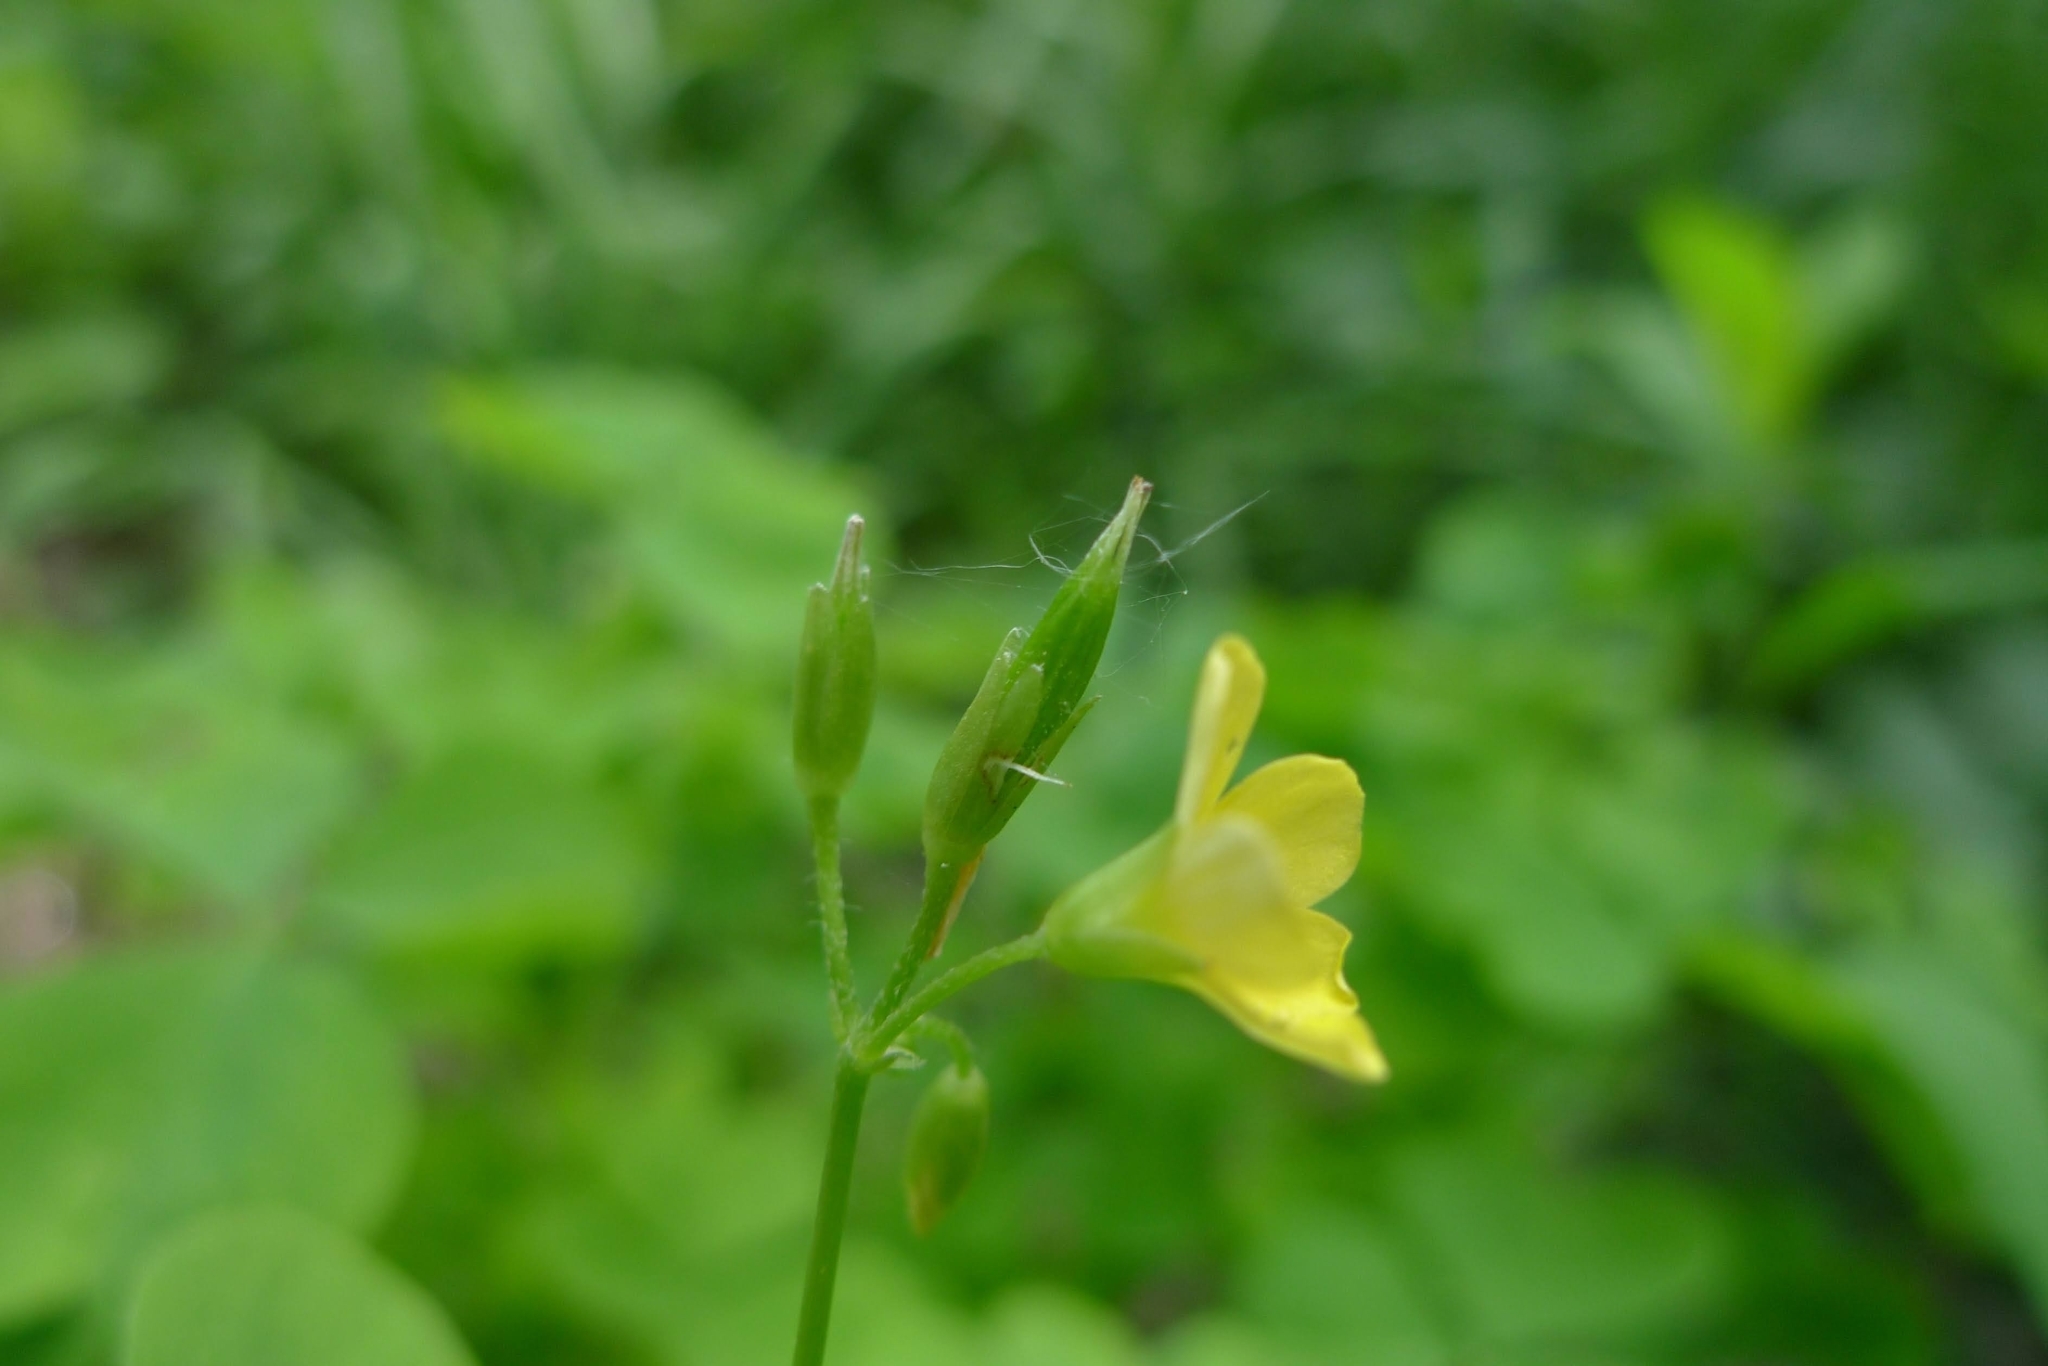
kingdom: Plantae
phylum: Tracheophyta
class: Magnoliopsida
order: Oxalidales
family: Oxalidaceae
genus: Oxalis
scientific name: Oxalis stricta
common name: Upright yellow-sorrel
